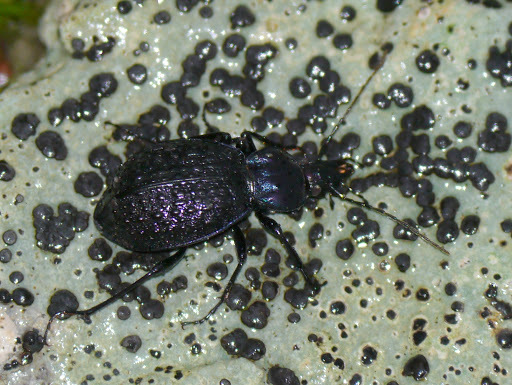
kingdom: Animalia
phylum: Arthropoda
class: Insecta
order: Coleoptera
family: Carabidae
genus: Sphaeroderus
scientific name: Sphaeroderus schaumii
